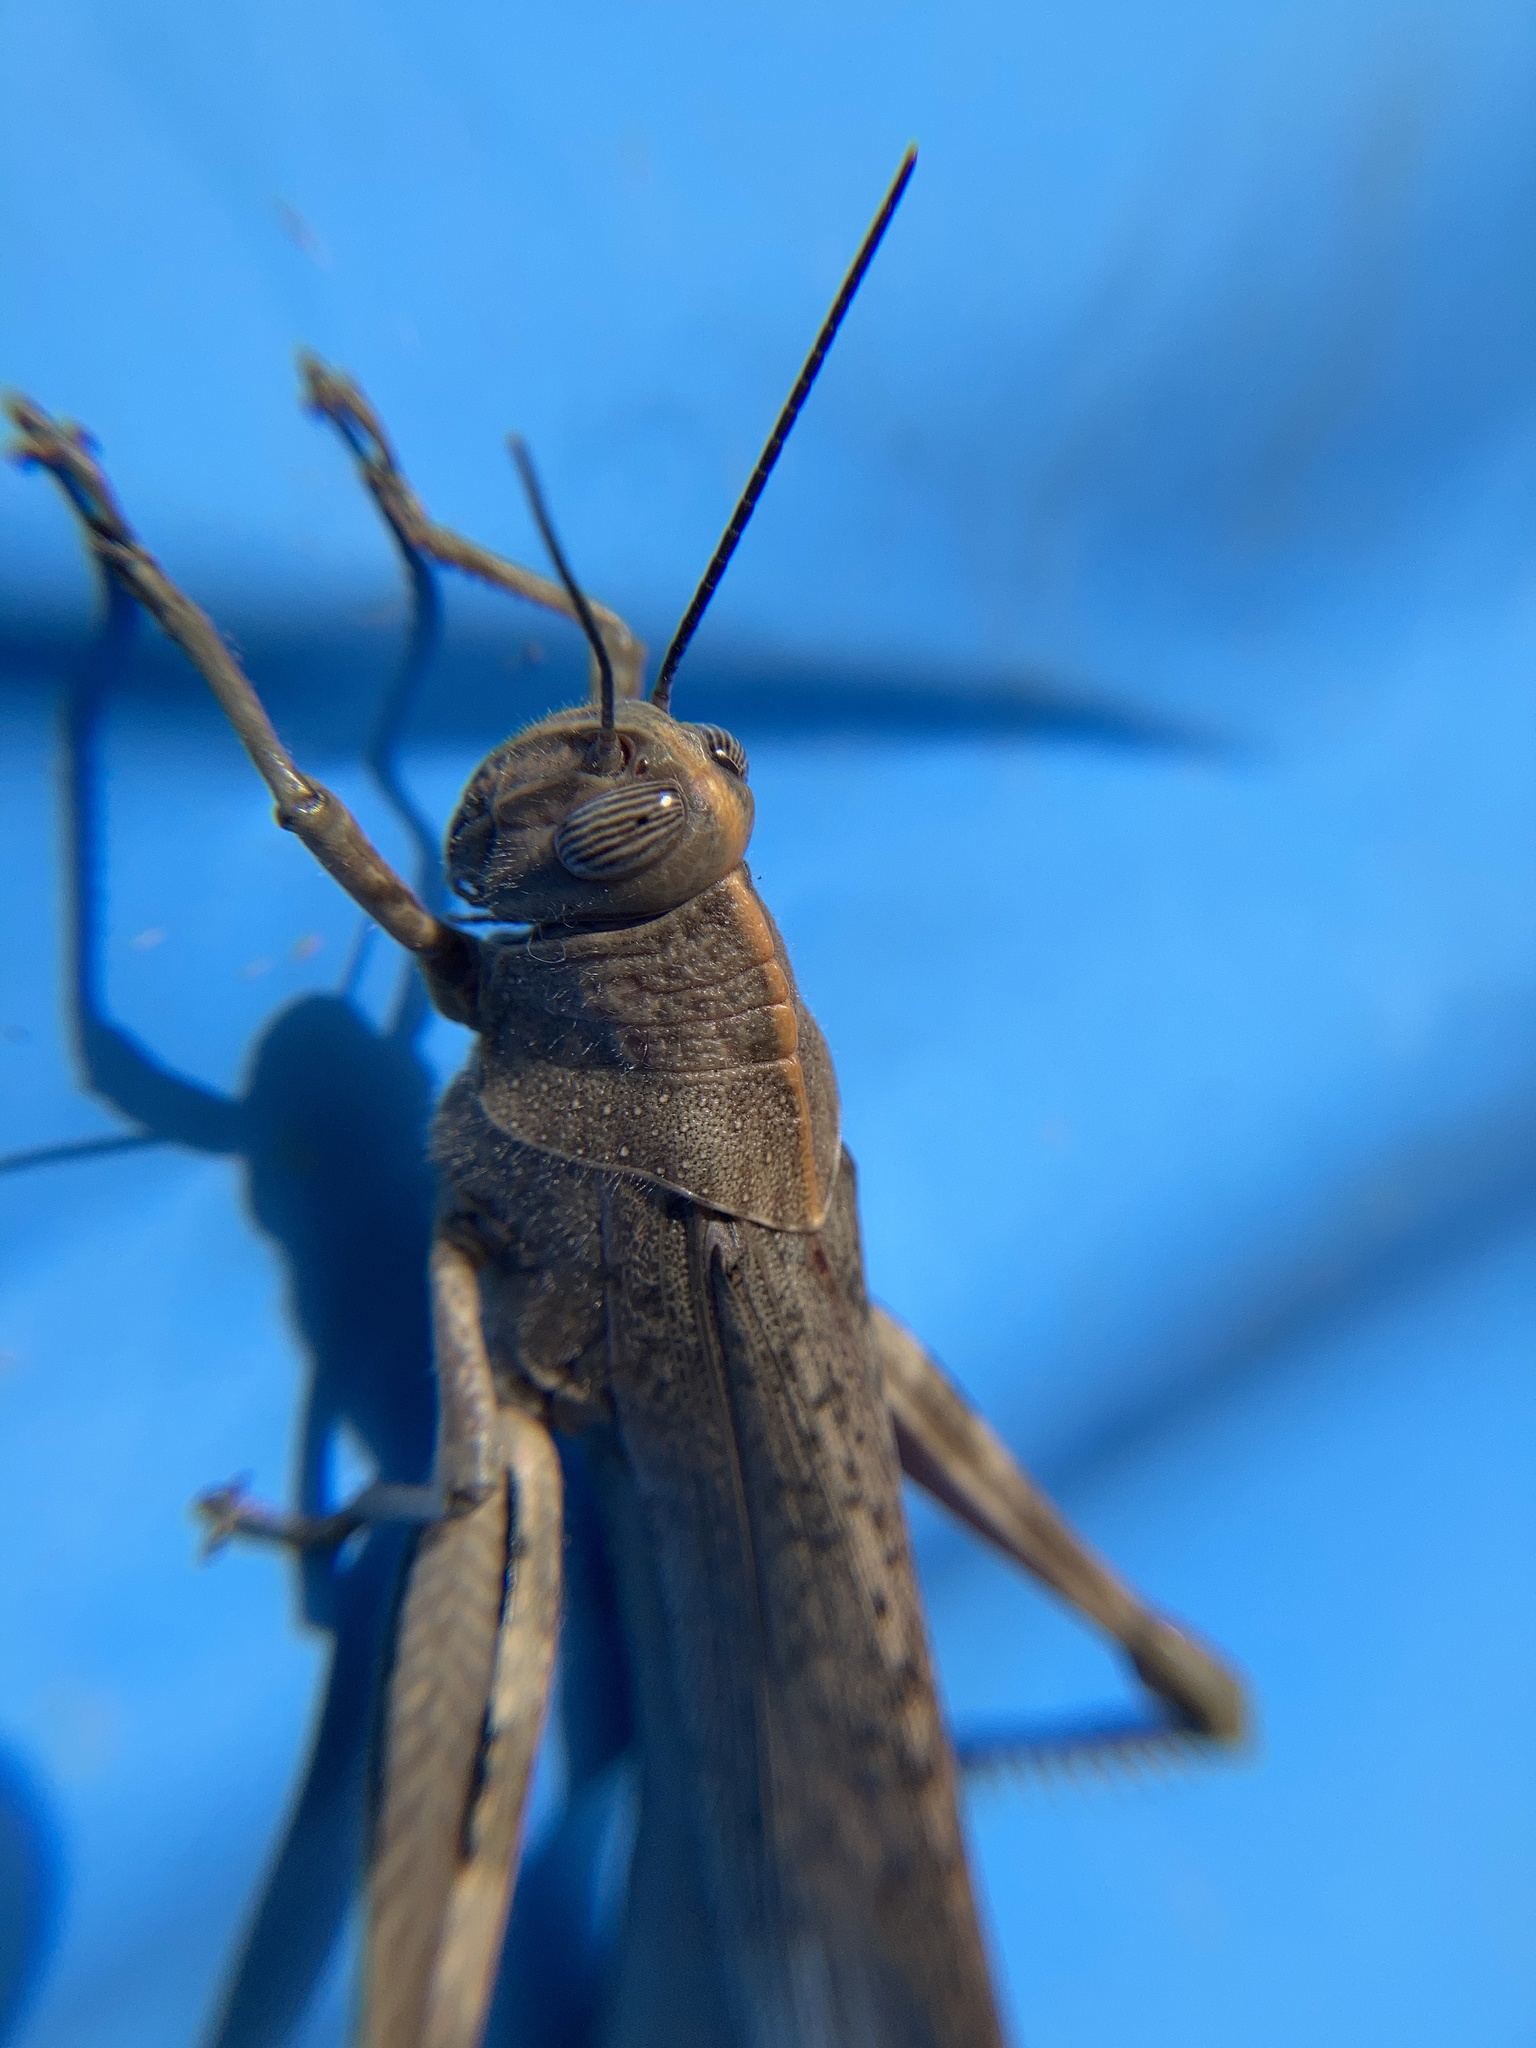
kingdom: Animalia
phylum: Arthropoda
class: Insecta
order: Orthoptera
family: Acrididae
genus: Anacridium
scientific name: Anacridium aegyptium
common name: Egyptian grasshopper
